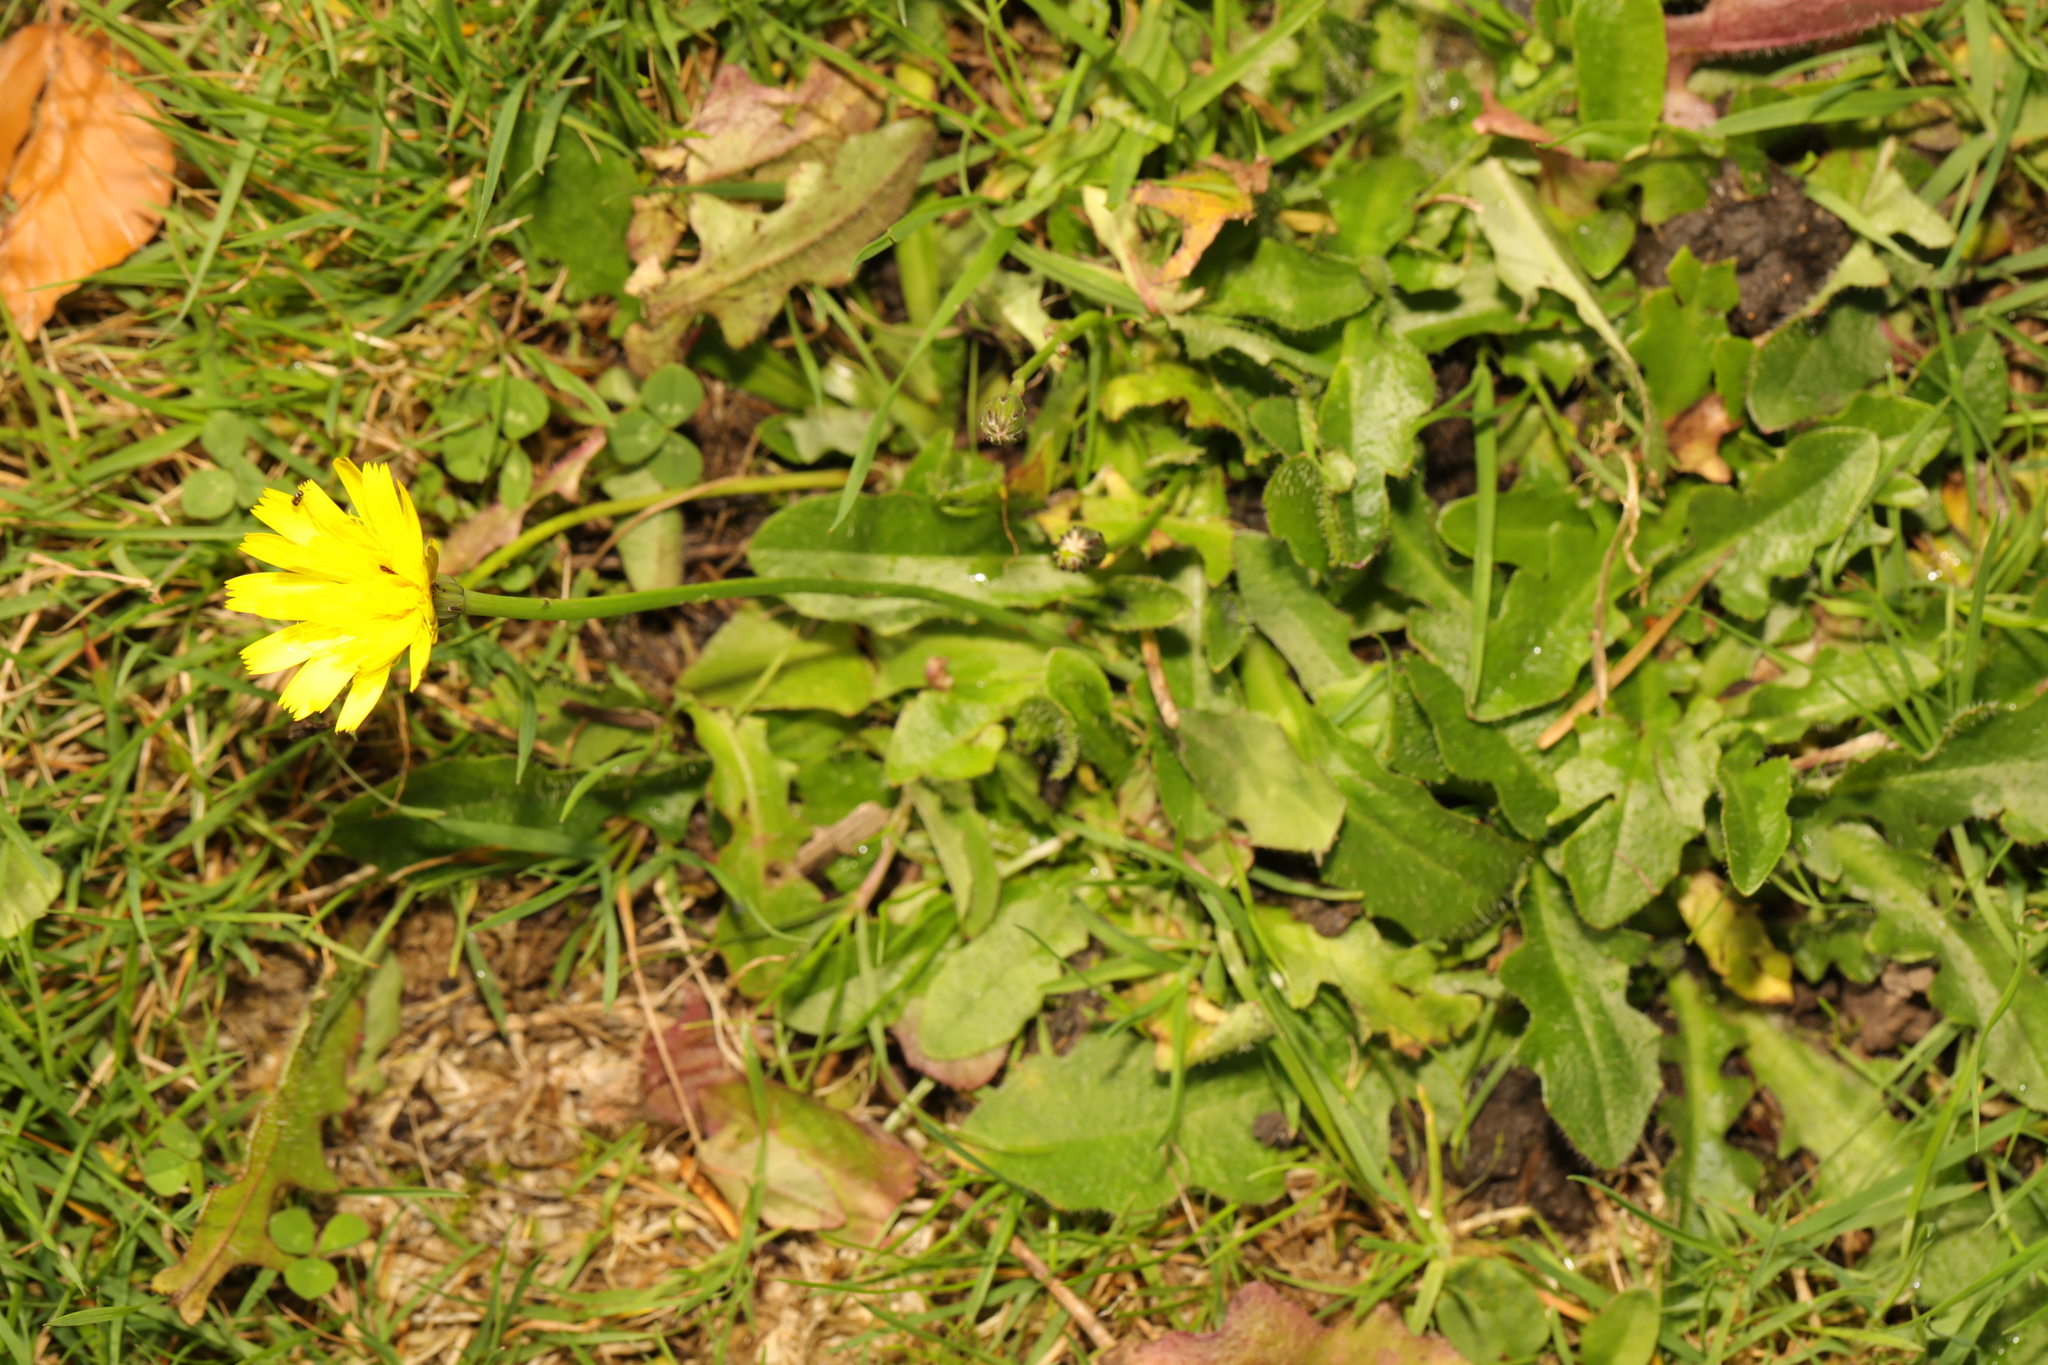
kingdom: Plantae
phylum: Tracheophyta
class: Magnoliopsida
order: Asterales
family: Asteraceae
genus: Hypochaeris
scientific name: Hypochaeris radicata
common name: Flatweed
